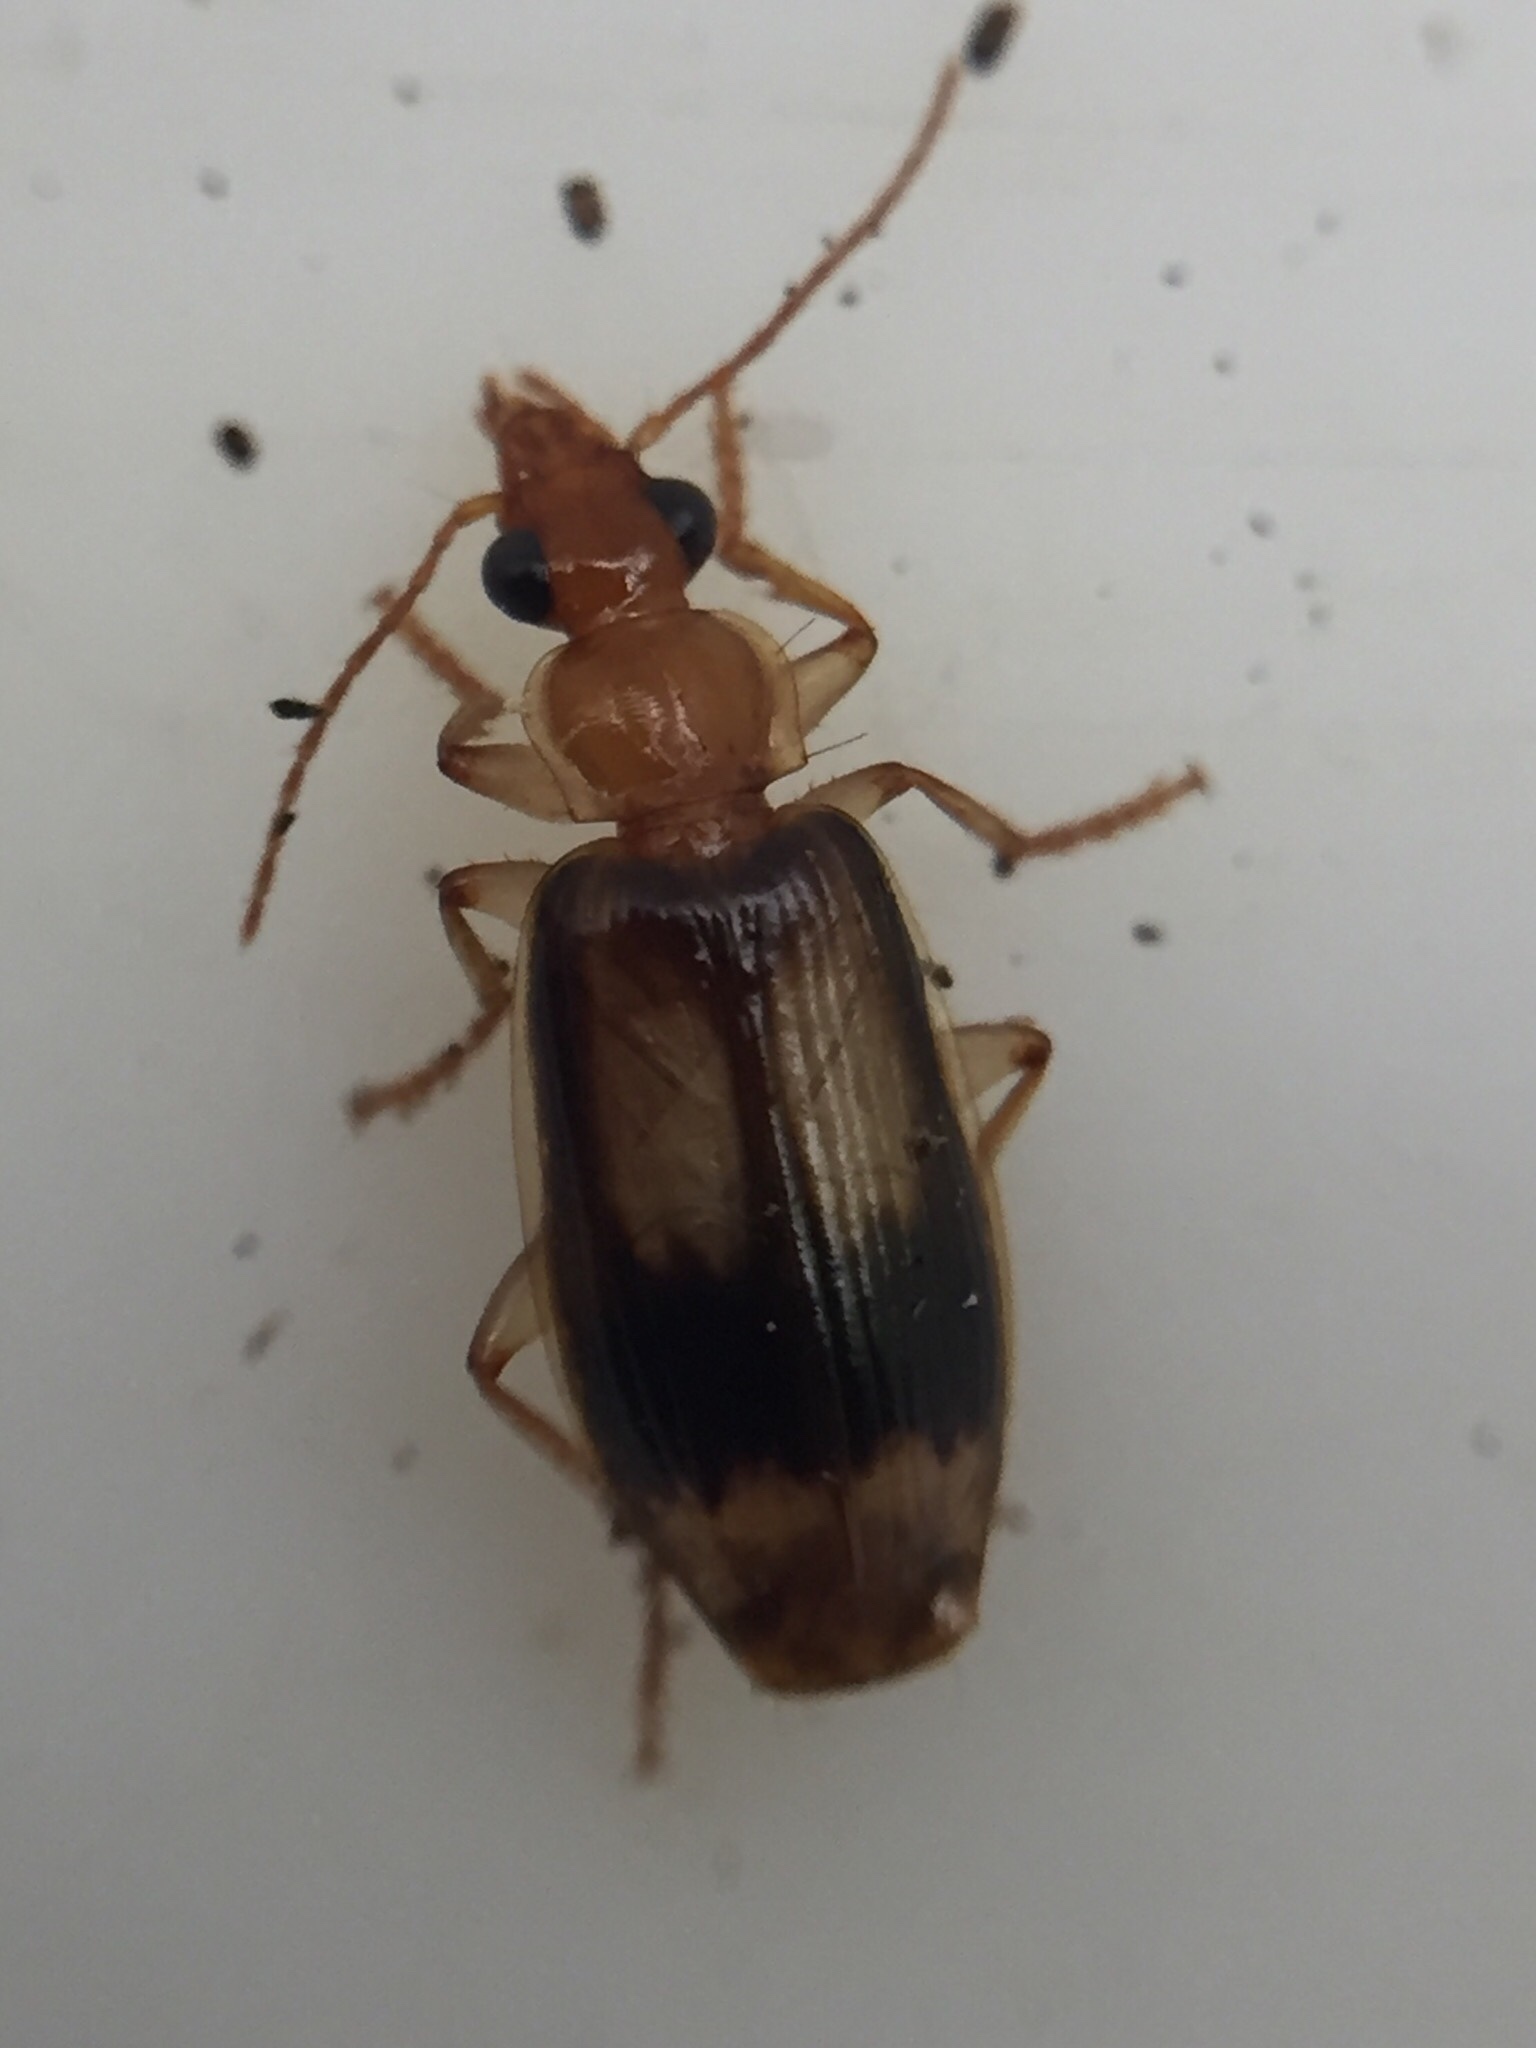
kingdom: Animalia
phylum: Arthropoda
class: Insecta
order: Coleoptera
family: Carabidae
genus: Trigonothops
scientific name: Trigonothops pacificus
